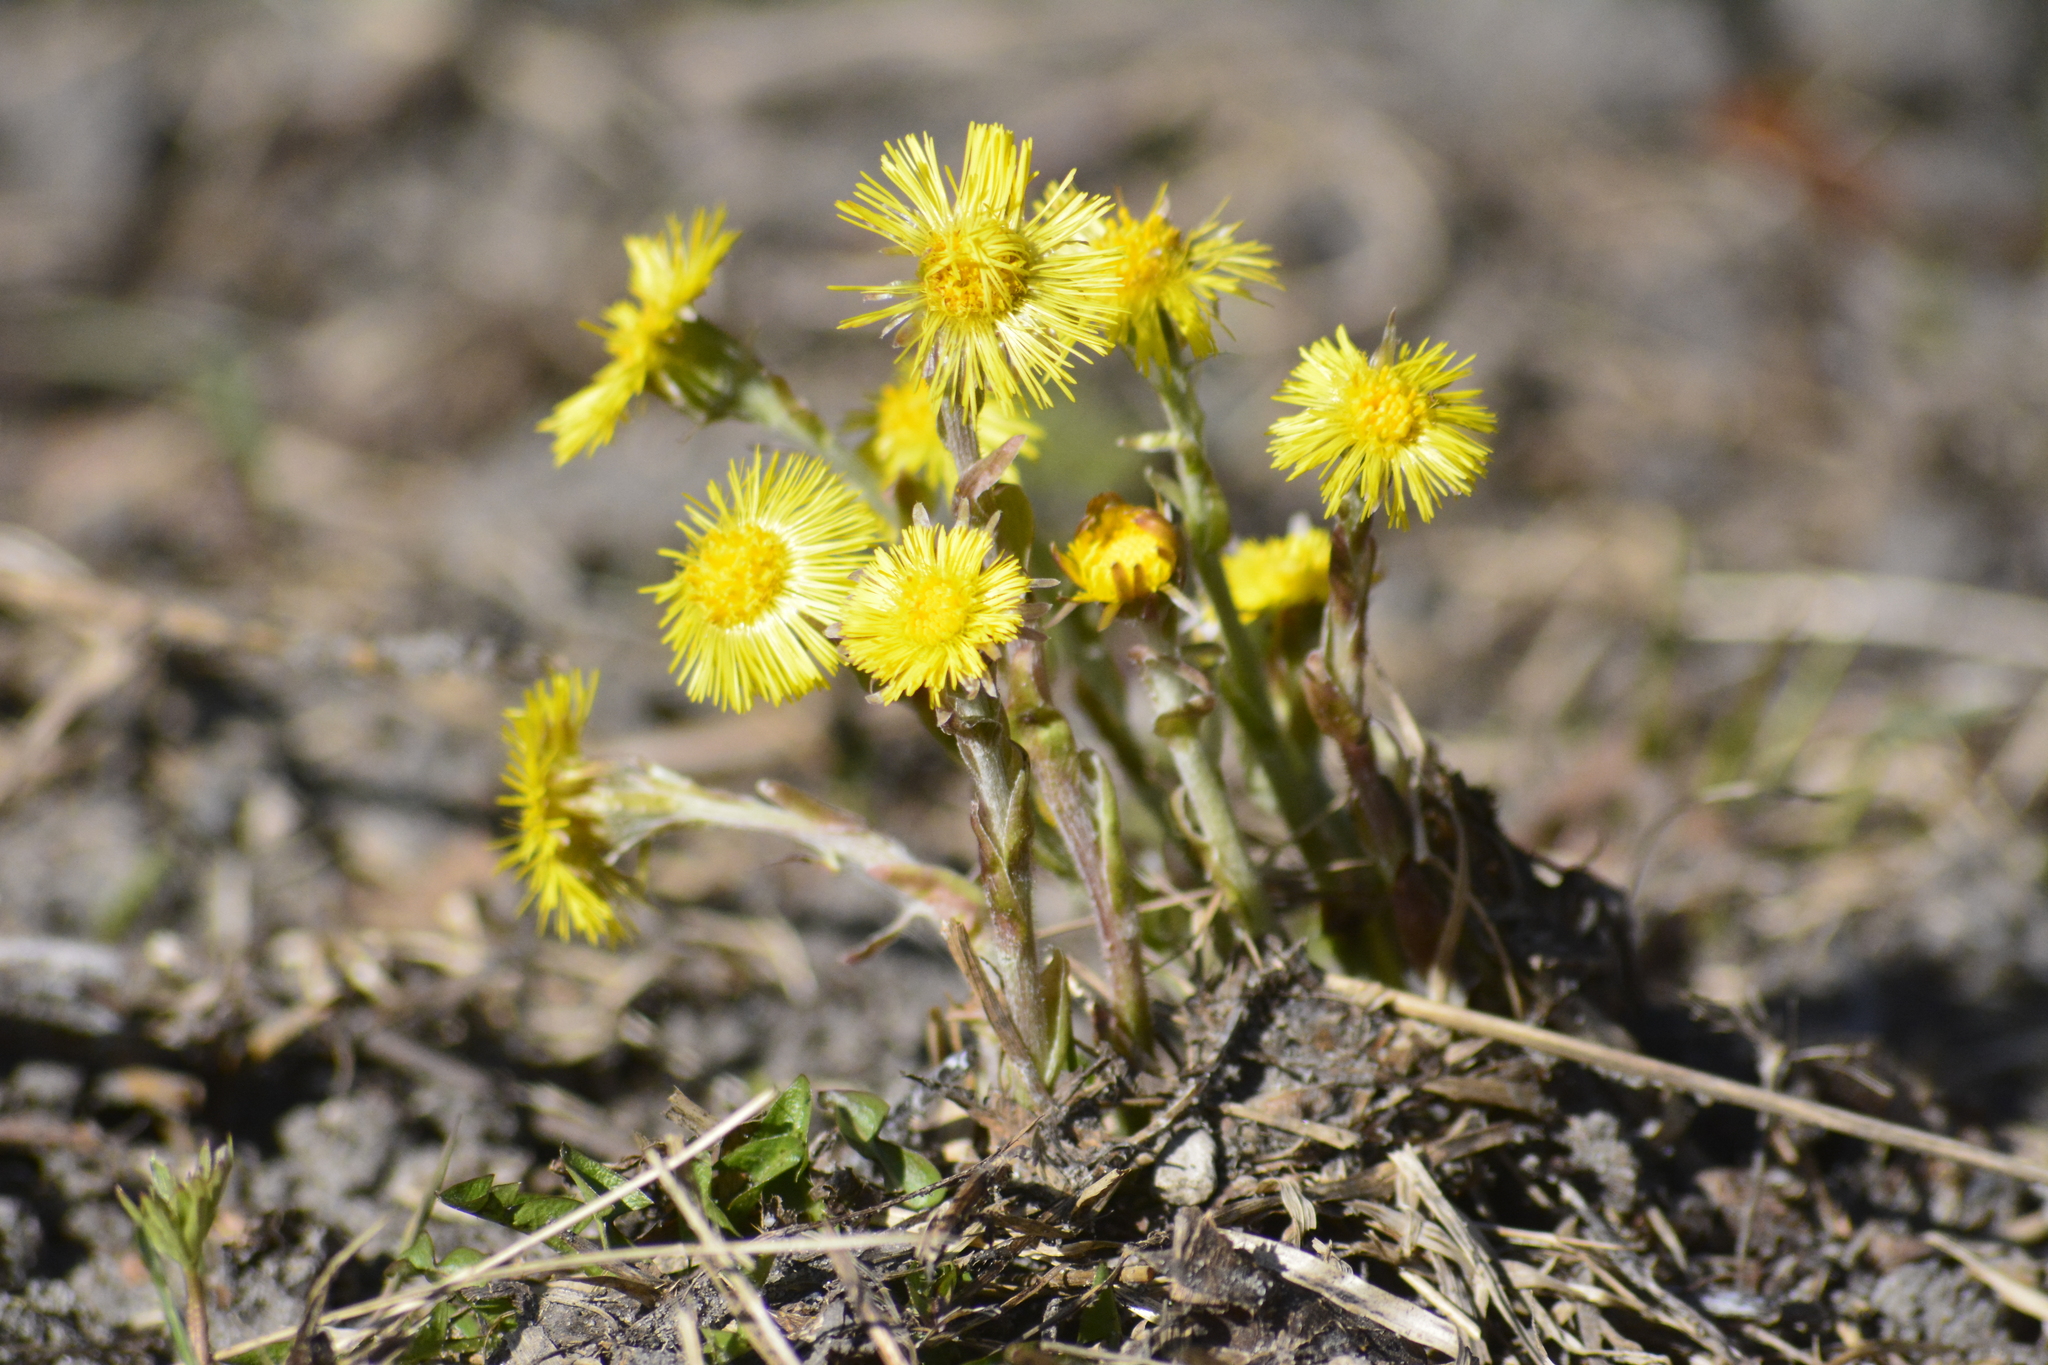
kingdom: Plantae
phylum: Tracheophyta
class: Magnoliopsida
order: Asterales
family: Asteraceae
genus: Tussilago
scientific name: Tussilago farfara
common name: Coltsfoot
